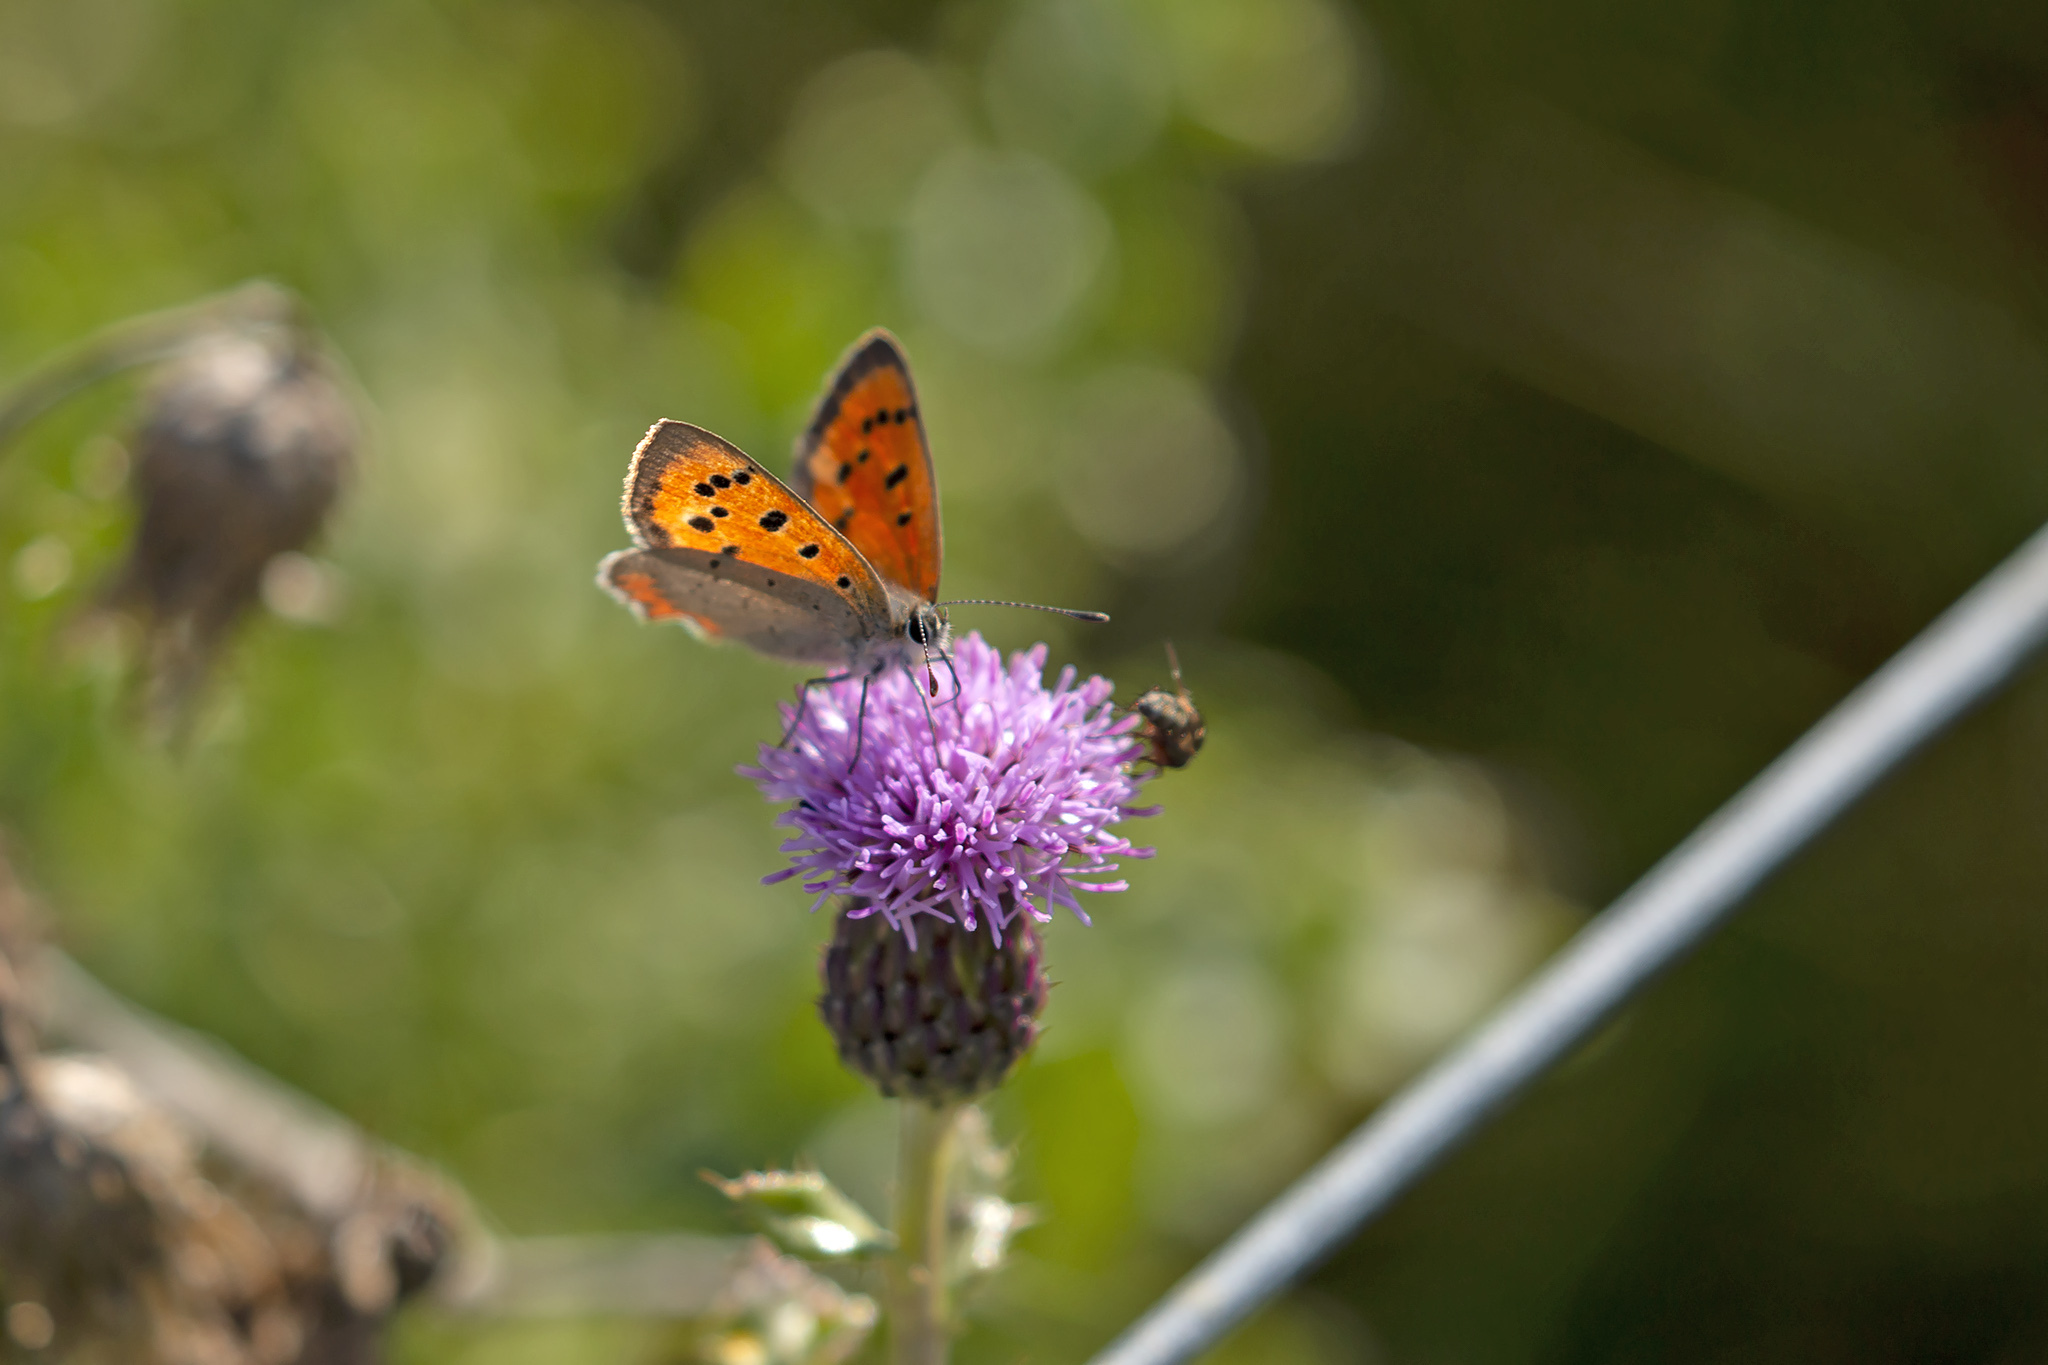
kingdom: Animalia
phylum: Arthropoda
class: Insecta
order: Lepidoptera
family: Lycaenidae
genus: Lycaena
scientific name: Lycaena phlaeas
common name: Small copper
